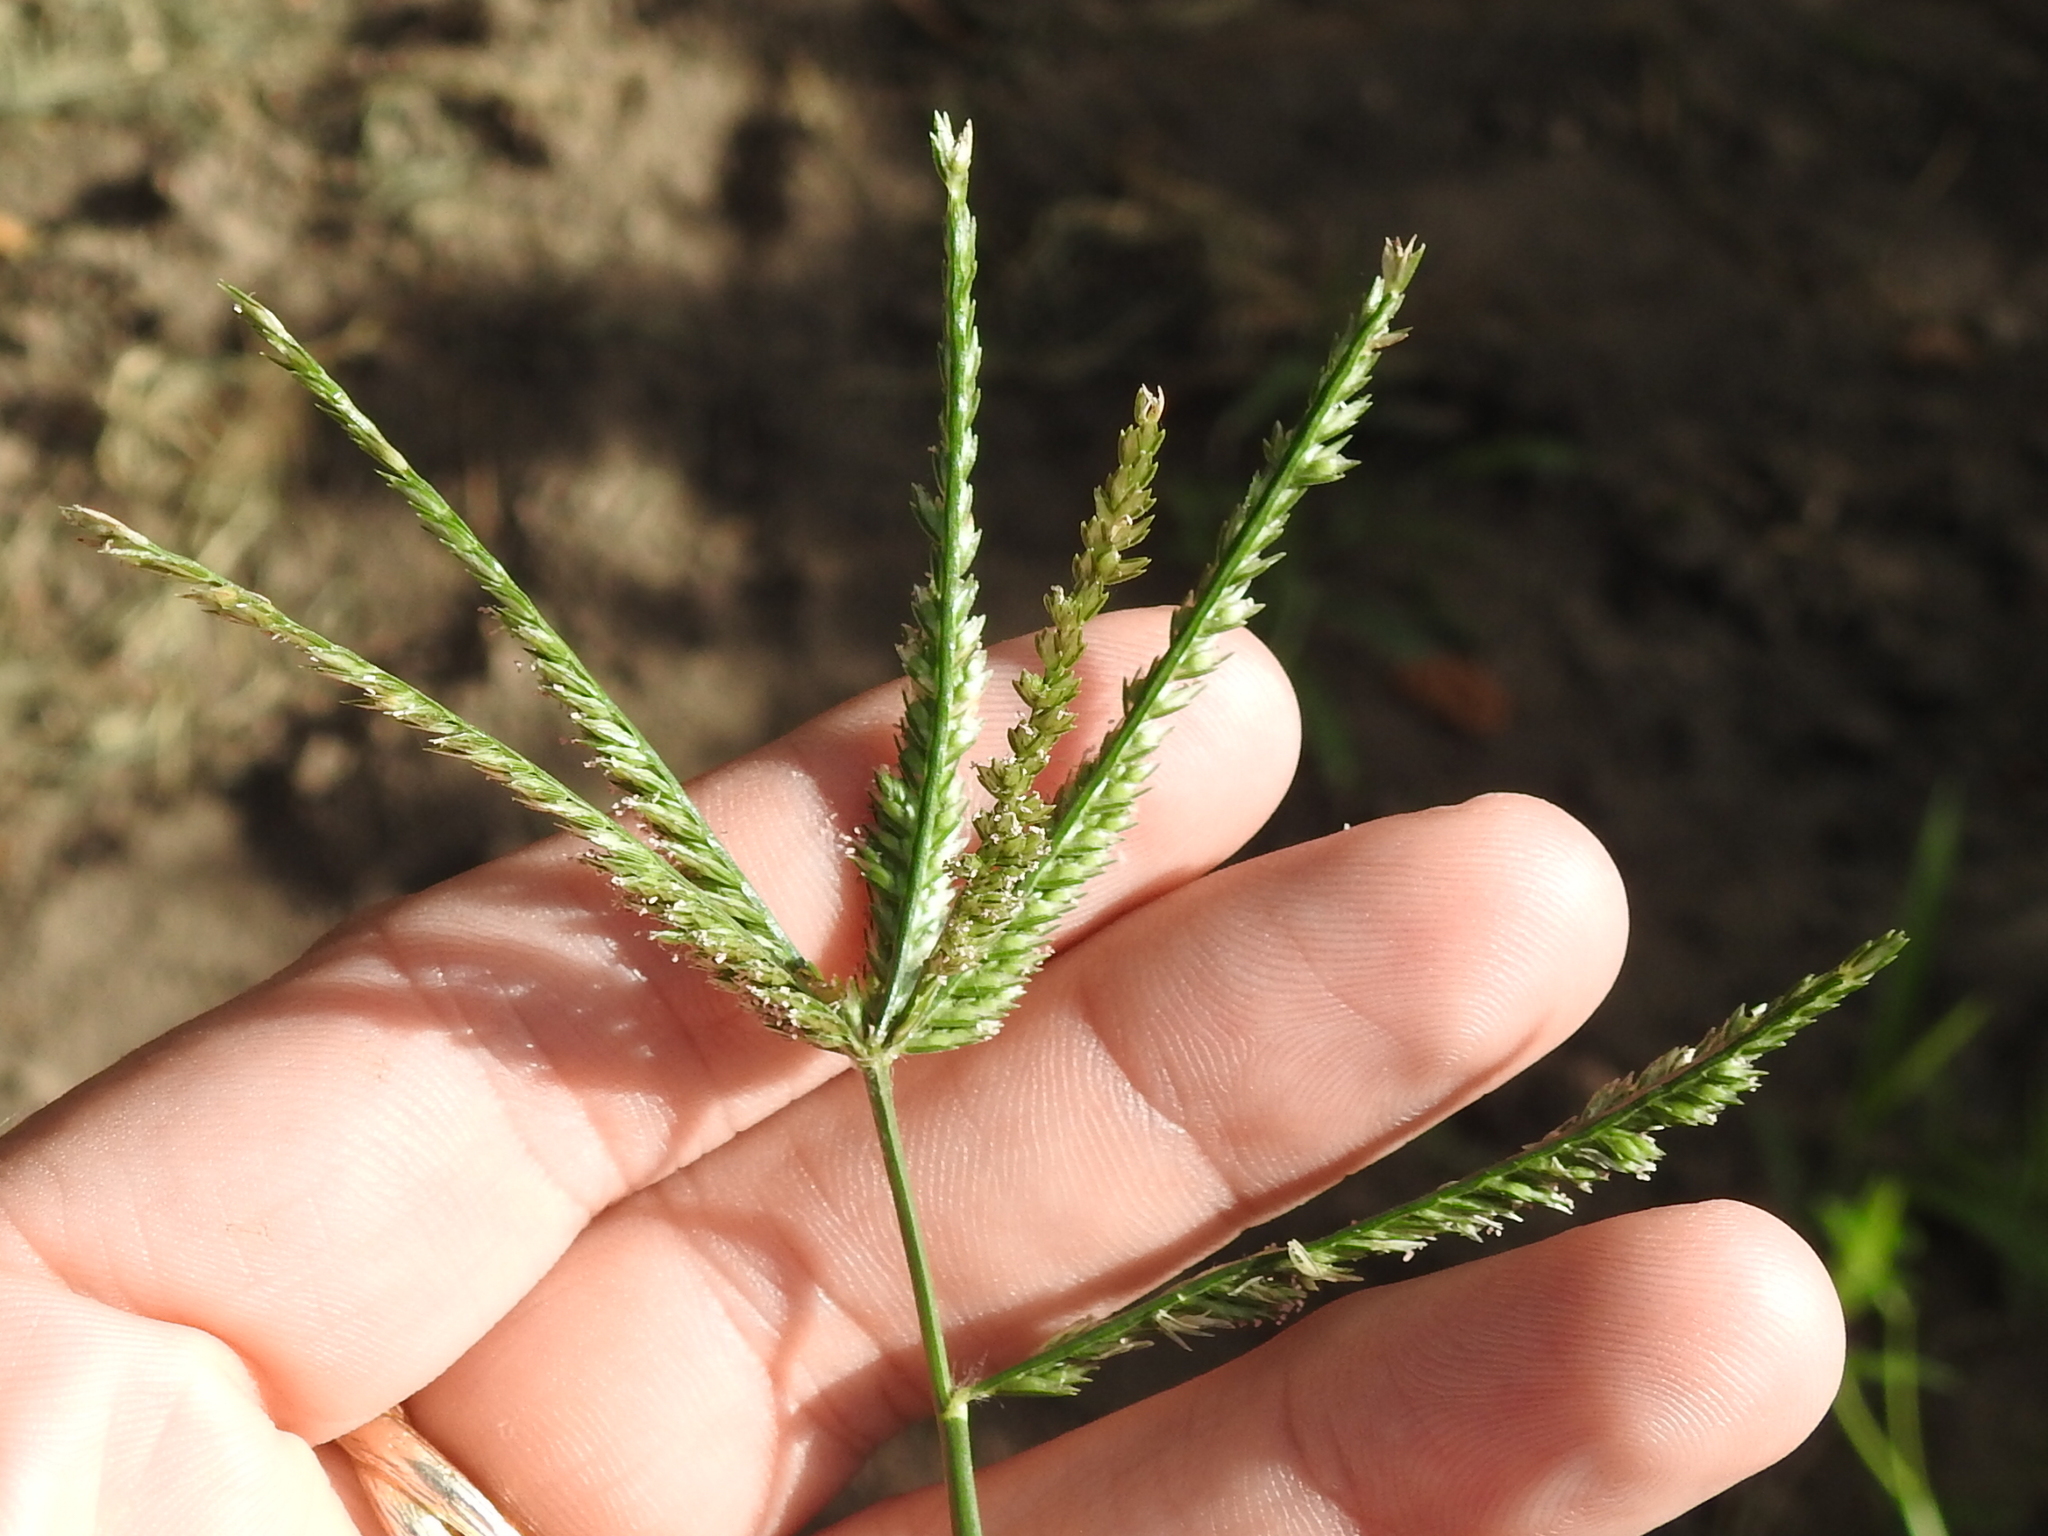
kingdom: Plantae
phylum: Tracheophyta
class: Liliopsida
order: Poales
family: Poaceae
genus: Eleusine
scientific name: Eleusine indica
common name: Yard-grass
